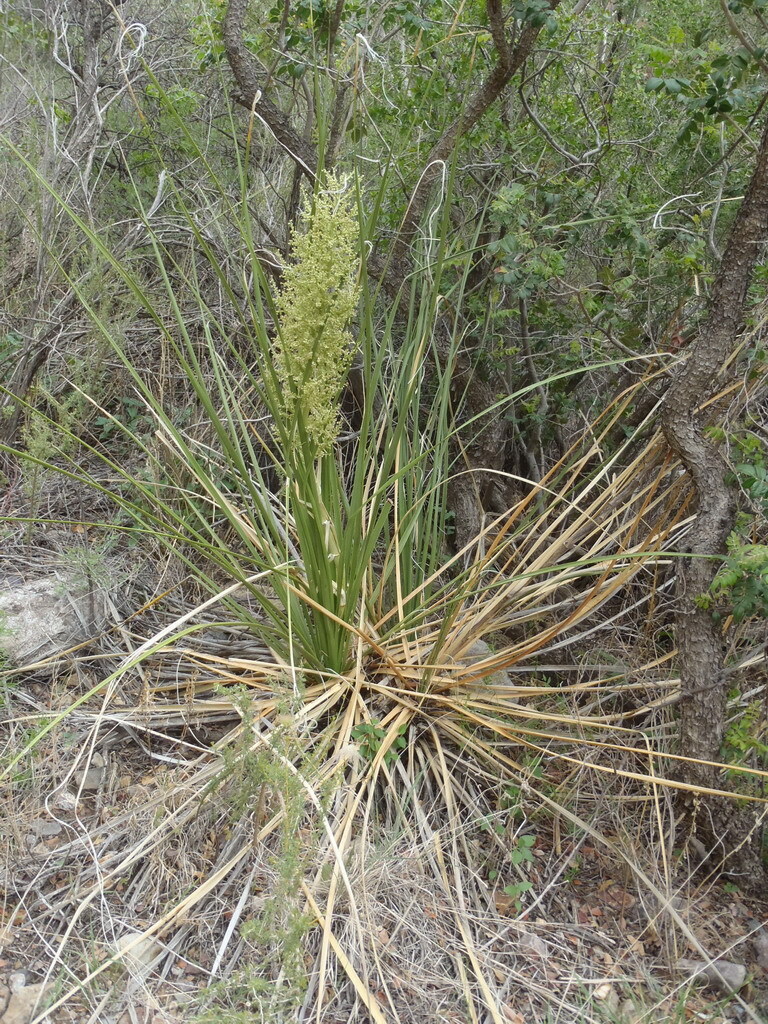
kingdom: Plantae
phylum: Tracheophyta
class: Liliopsida
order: Asparagales
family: Asparagaceae
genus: Nolina
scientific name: Nolina erumpens
